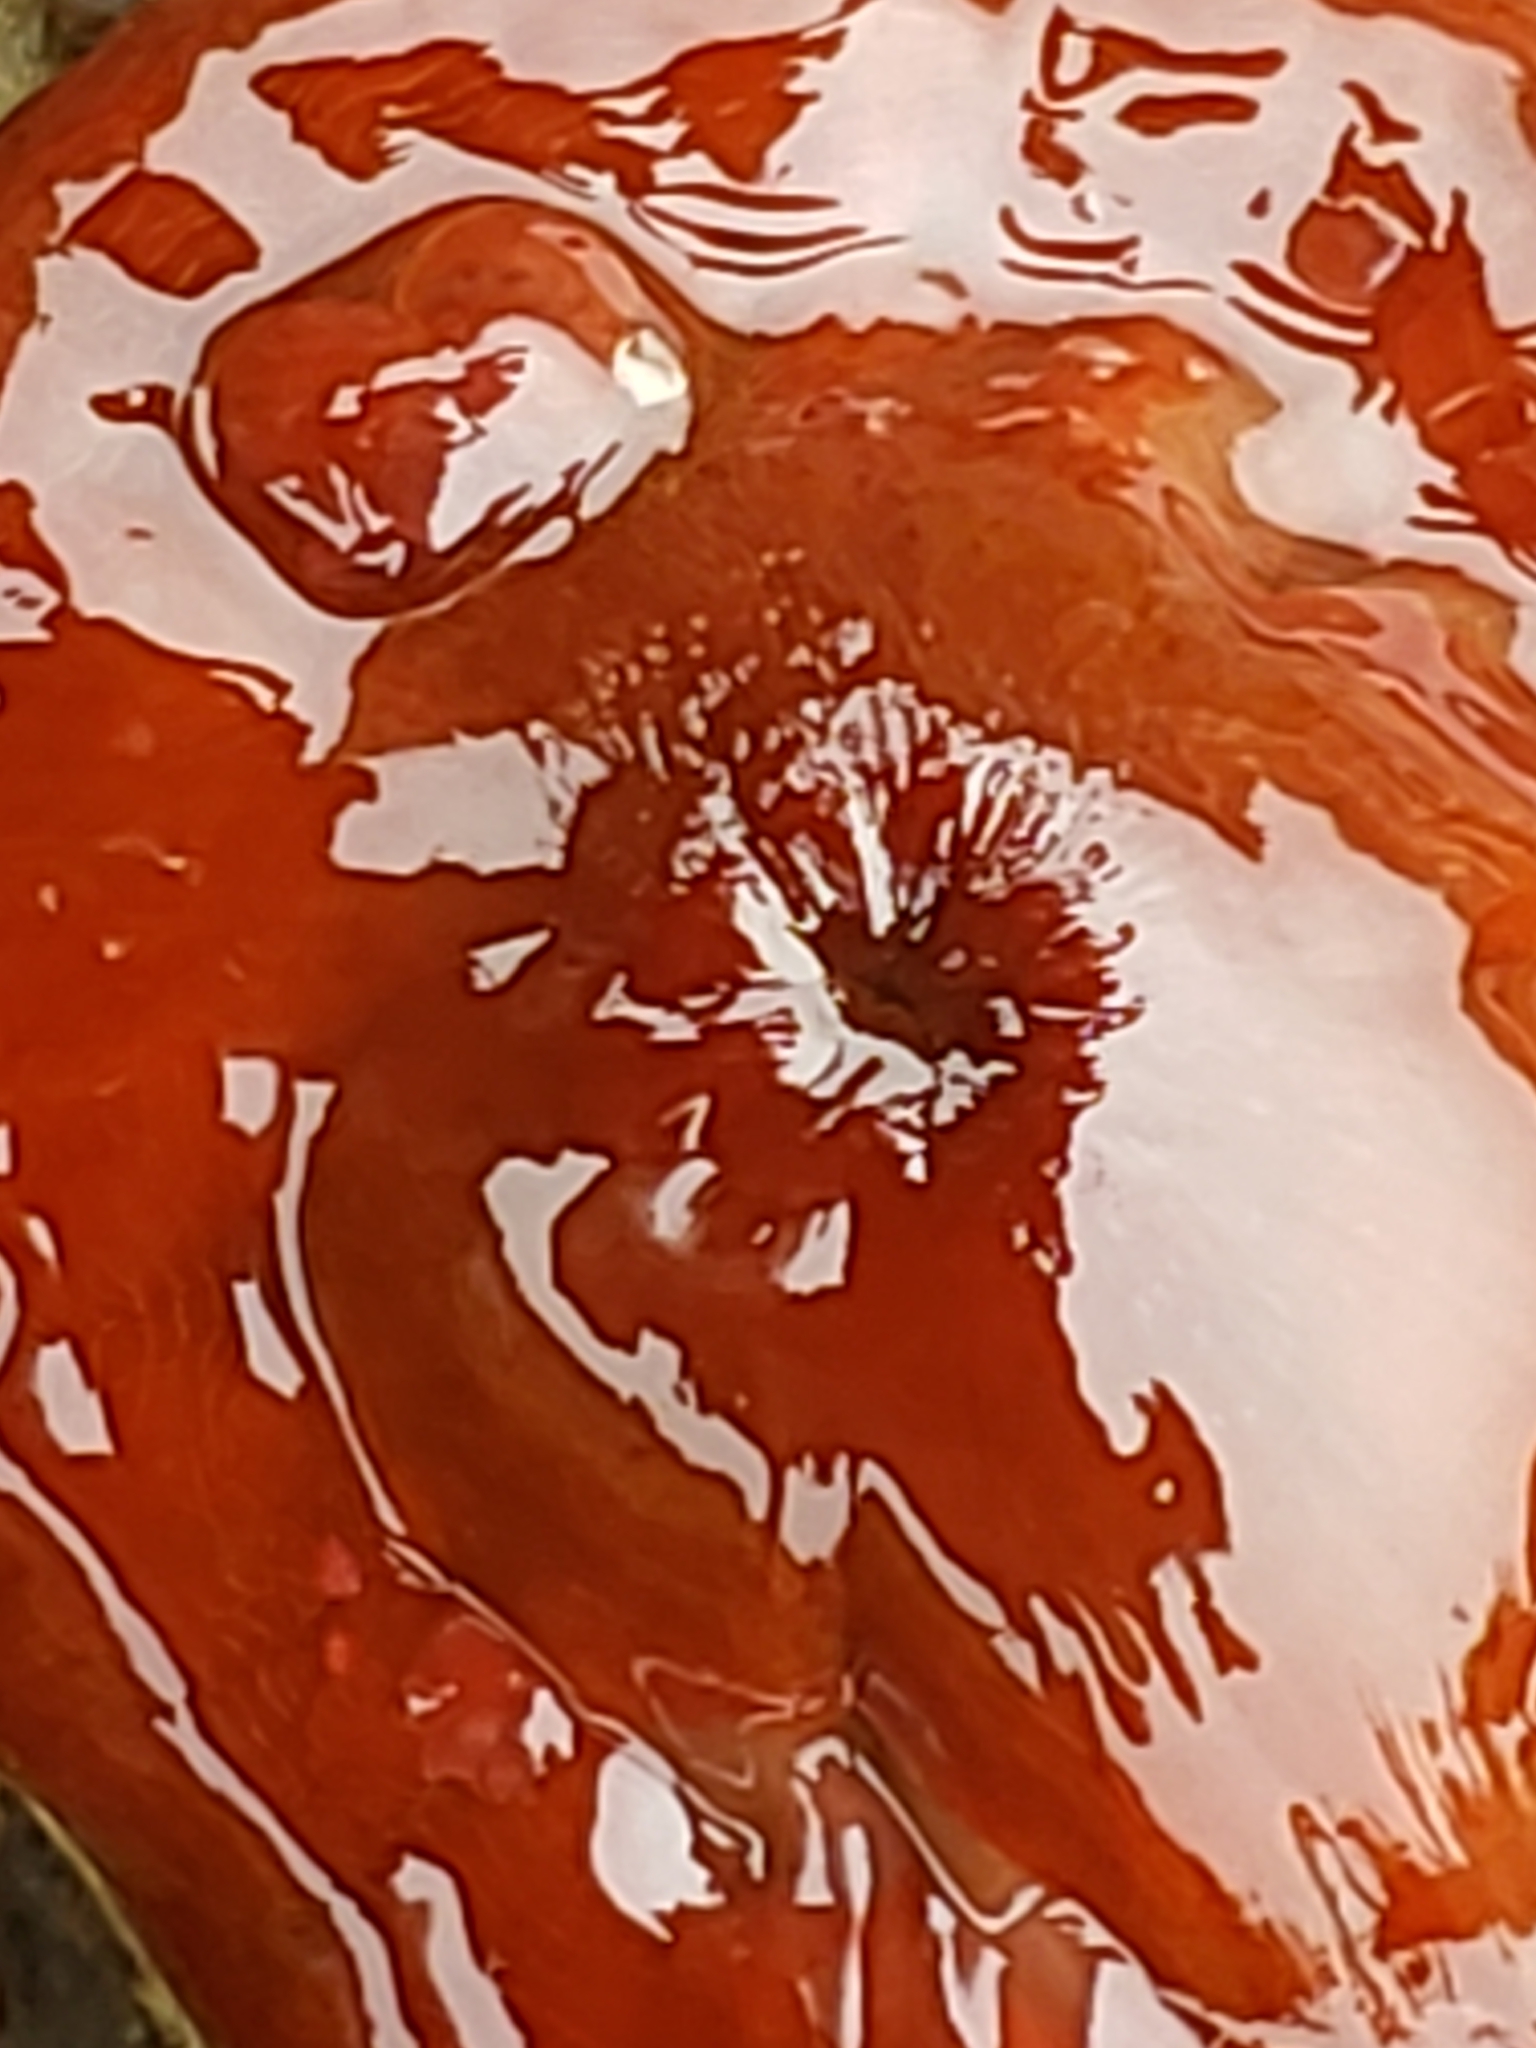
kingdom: Animalia
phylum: Cnidaria
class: Anthozoa
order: Actiniaria
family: Actiniidae
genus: Epiactis
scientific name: Epiactis prolifera
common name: Brooding anemone
